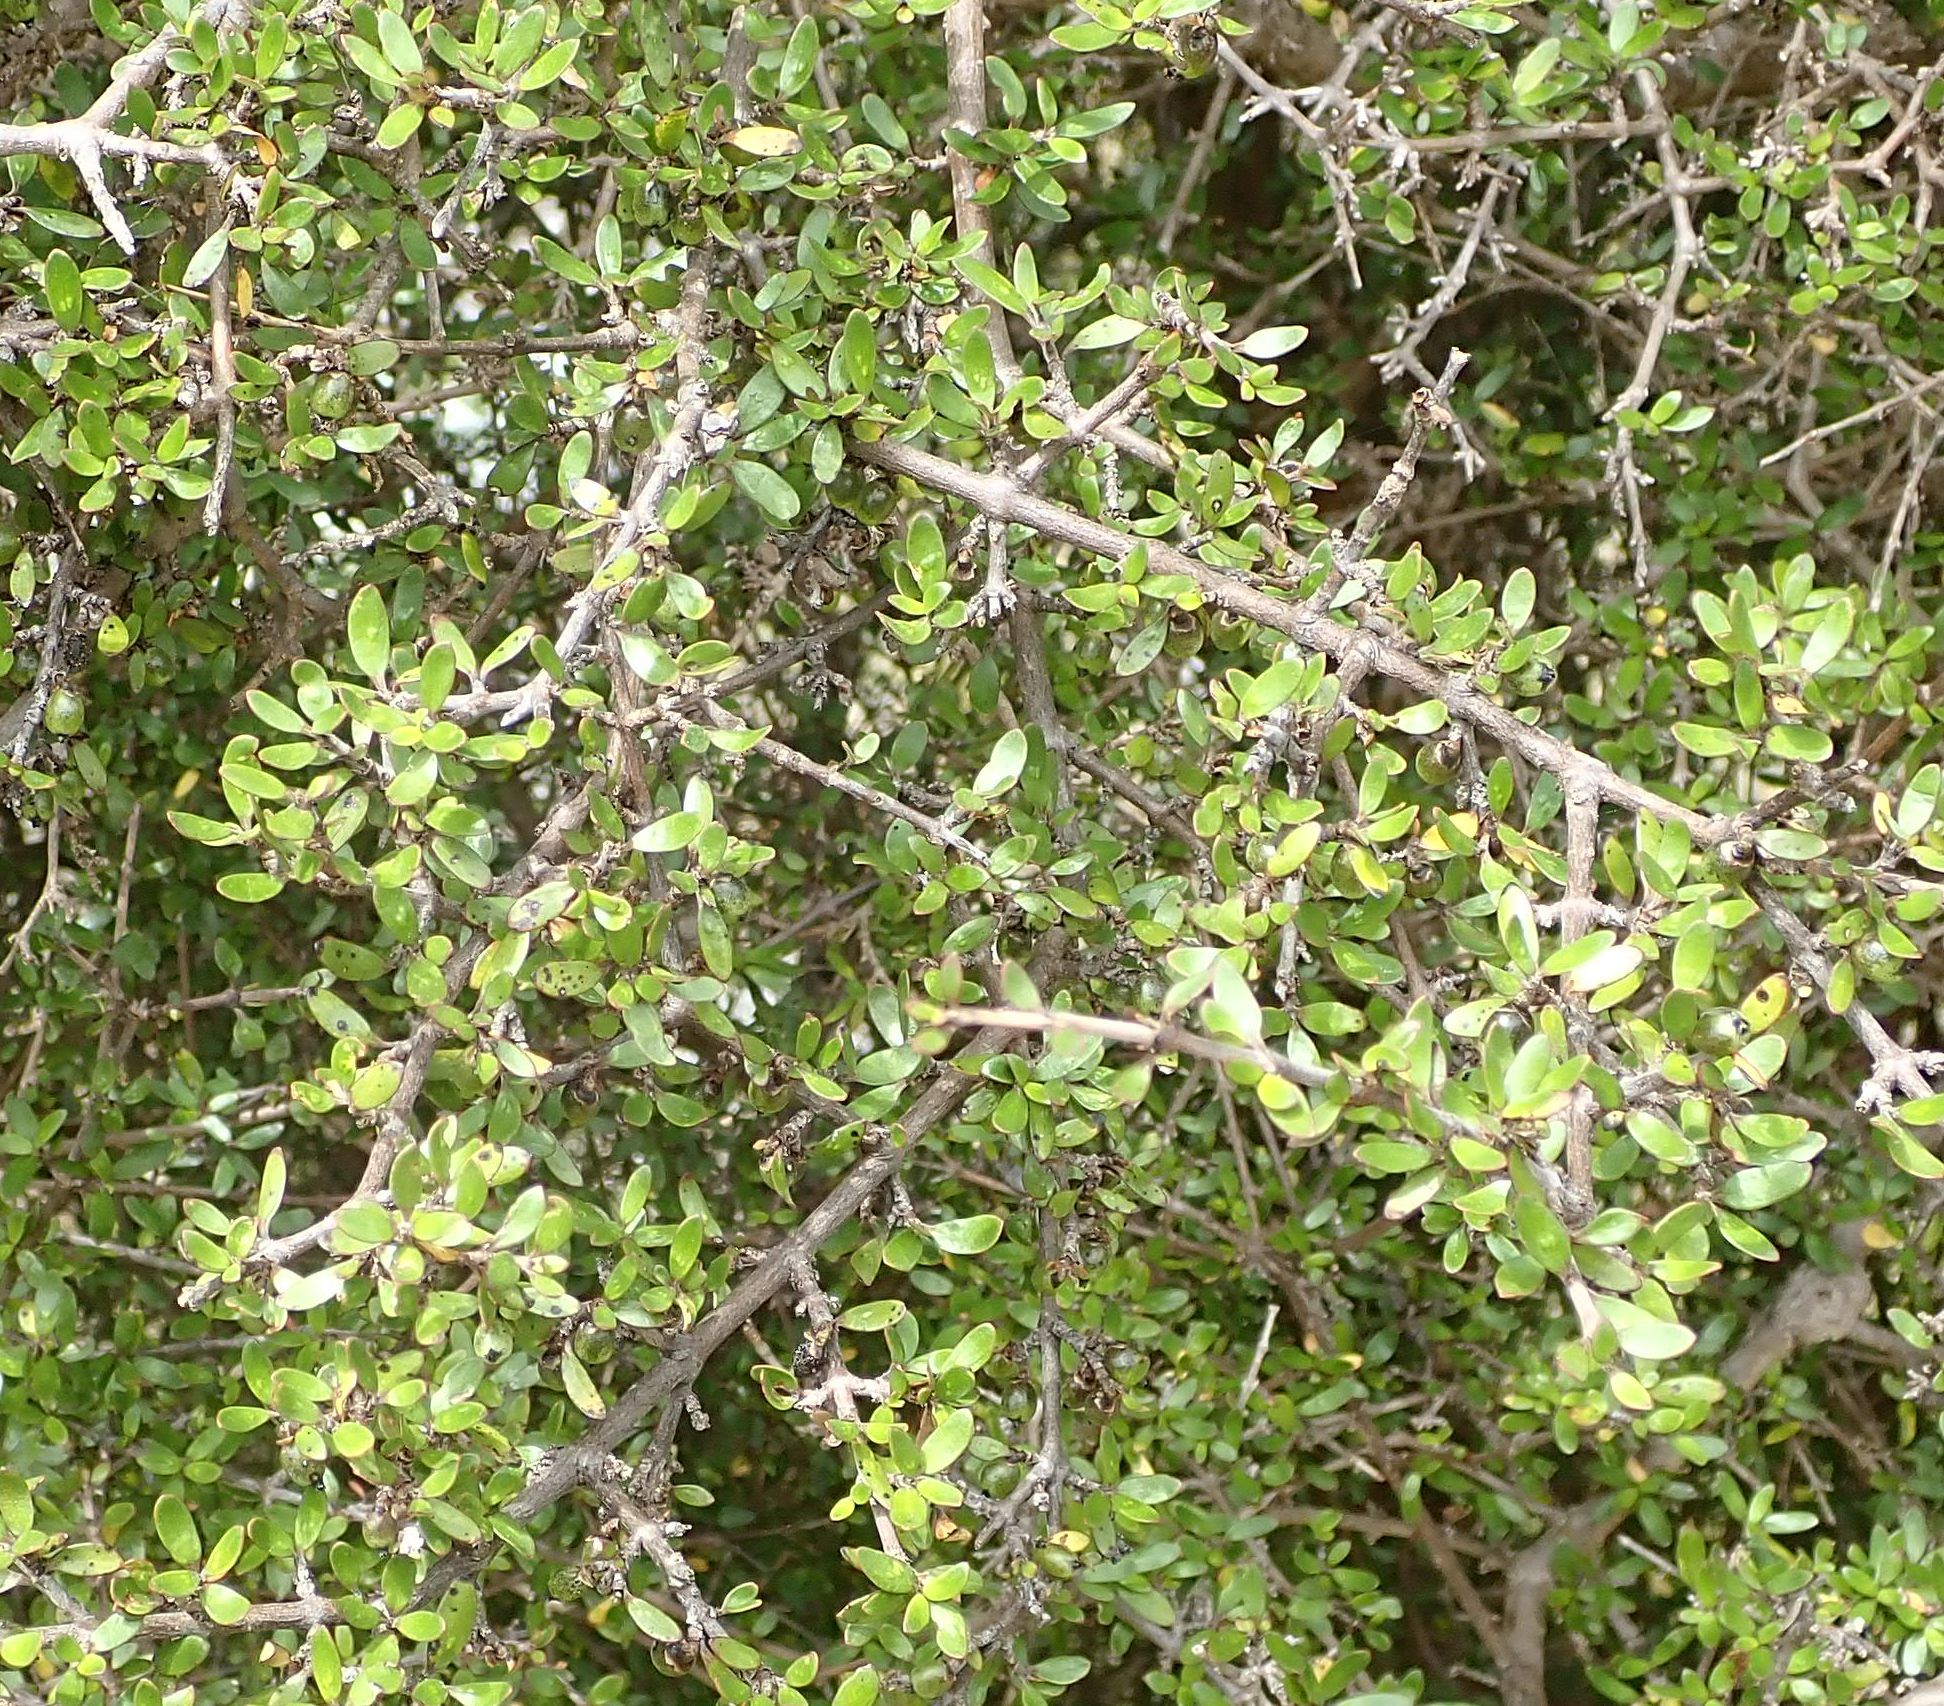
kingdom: Plantae
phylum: Tracheophyta
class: Magnoliopsida
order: Gentianales
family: Rubiaceae
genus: Coprosma
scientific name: Coprosma propinqua
